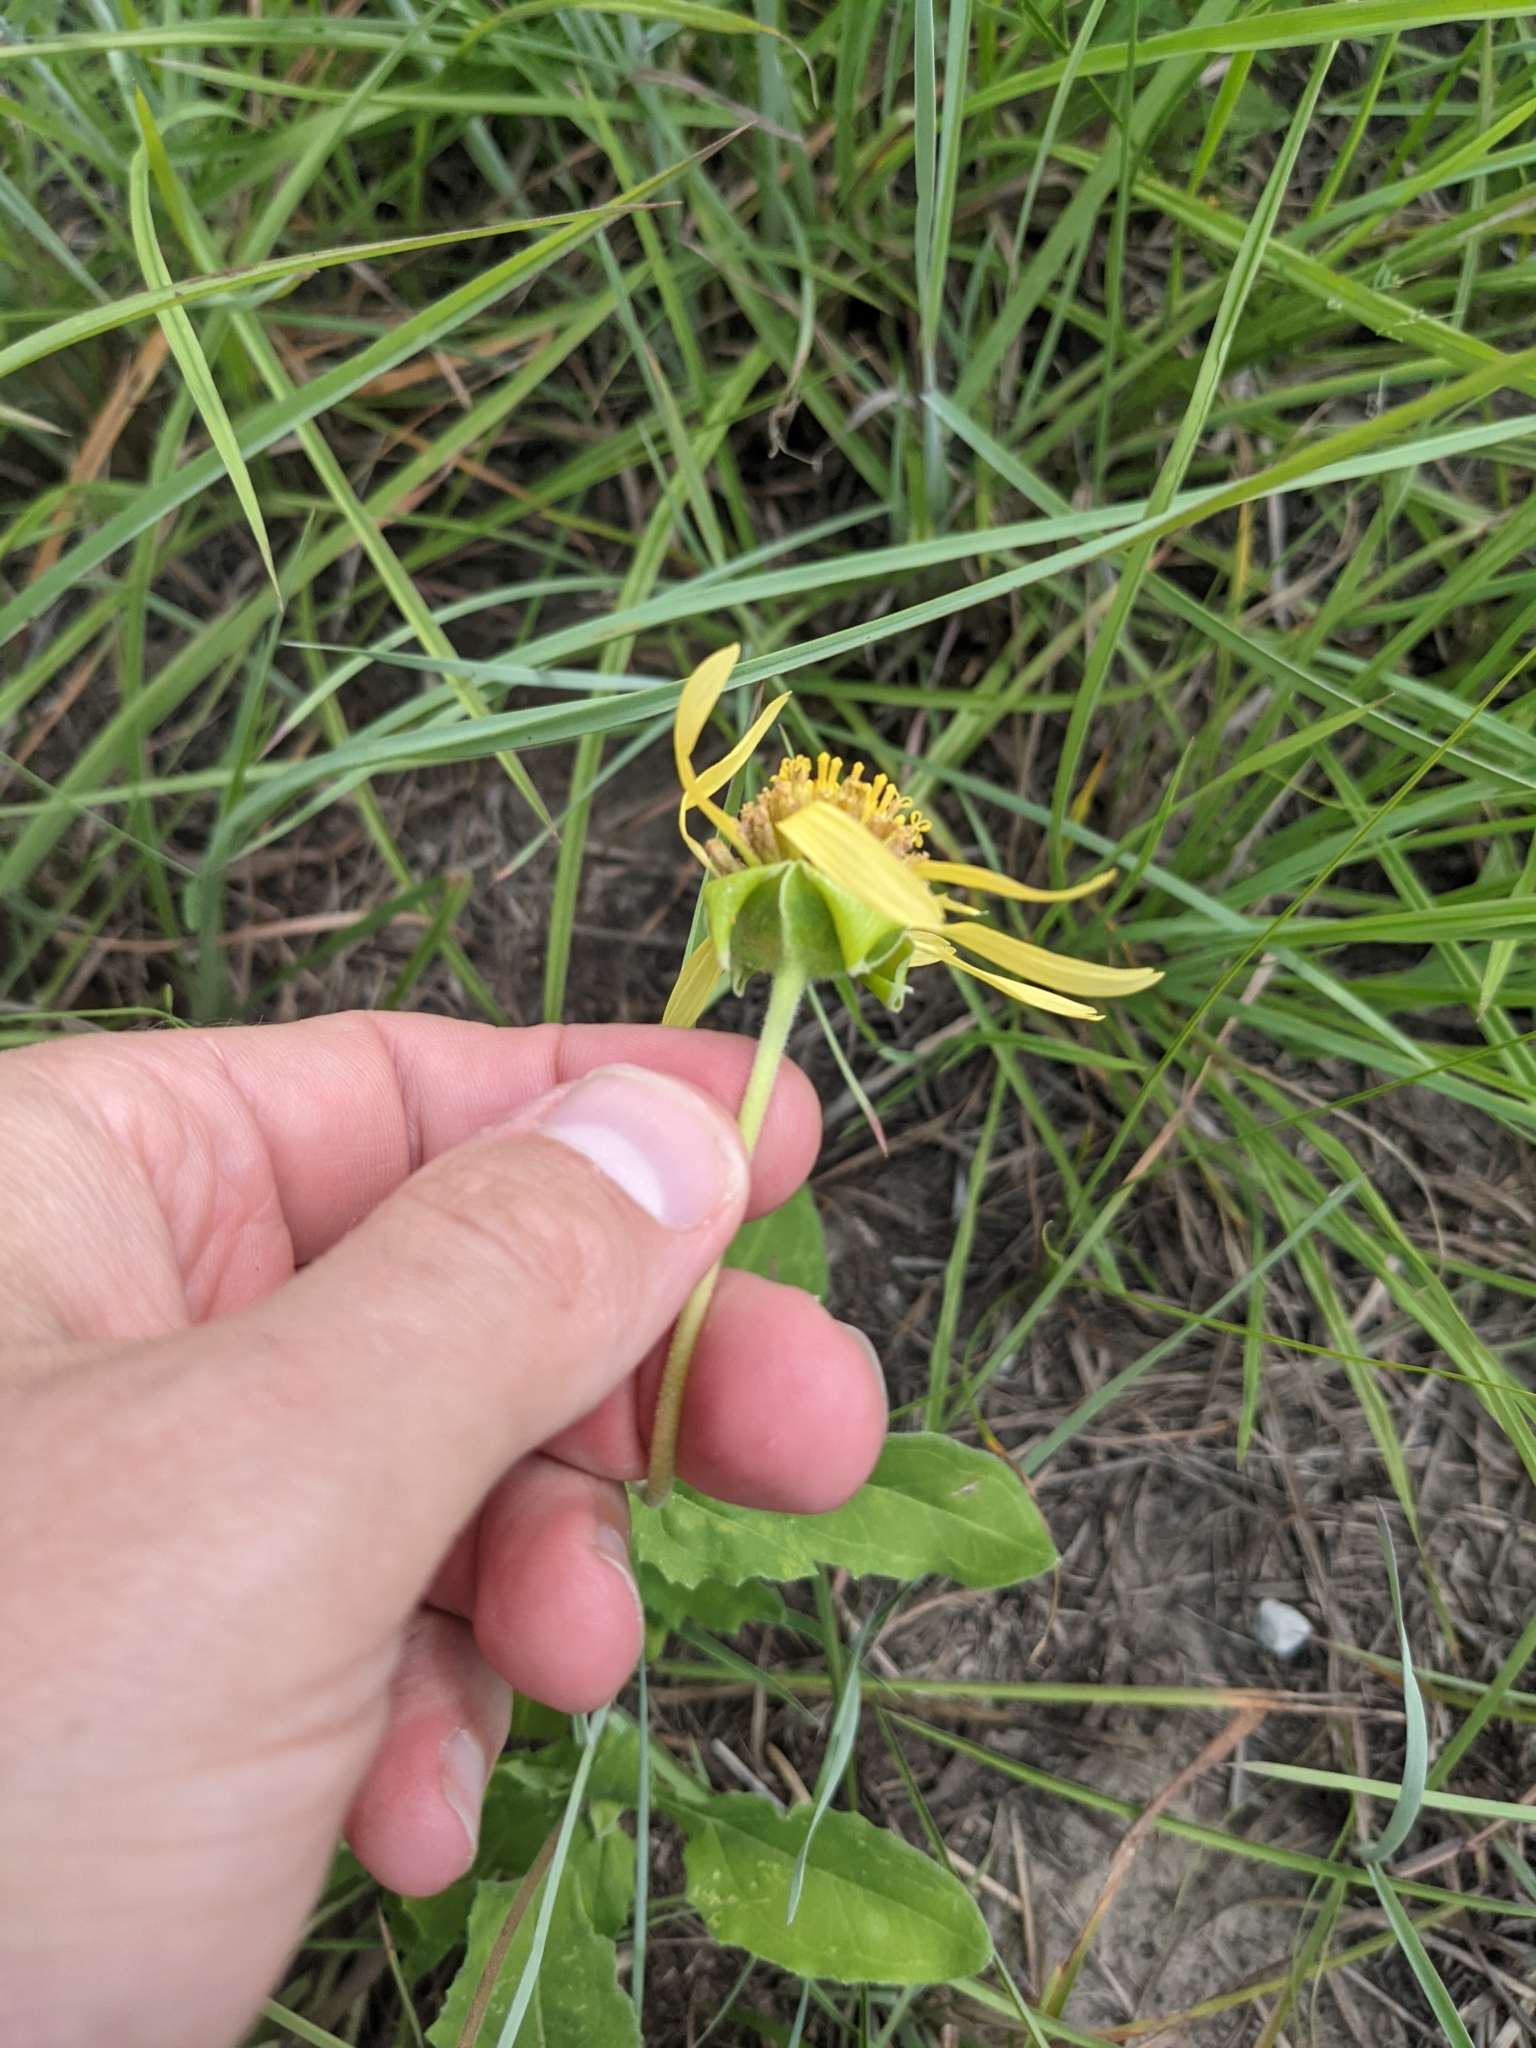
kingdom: Plantae
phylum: Tracheophyta
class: Magnoliopsida
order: Asterales
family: Asteraceae
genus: Tetragonotheca
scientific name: Tetragonotheca repanda
